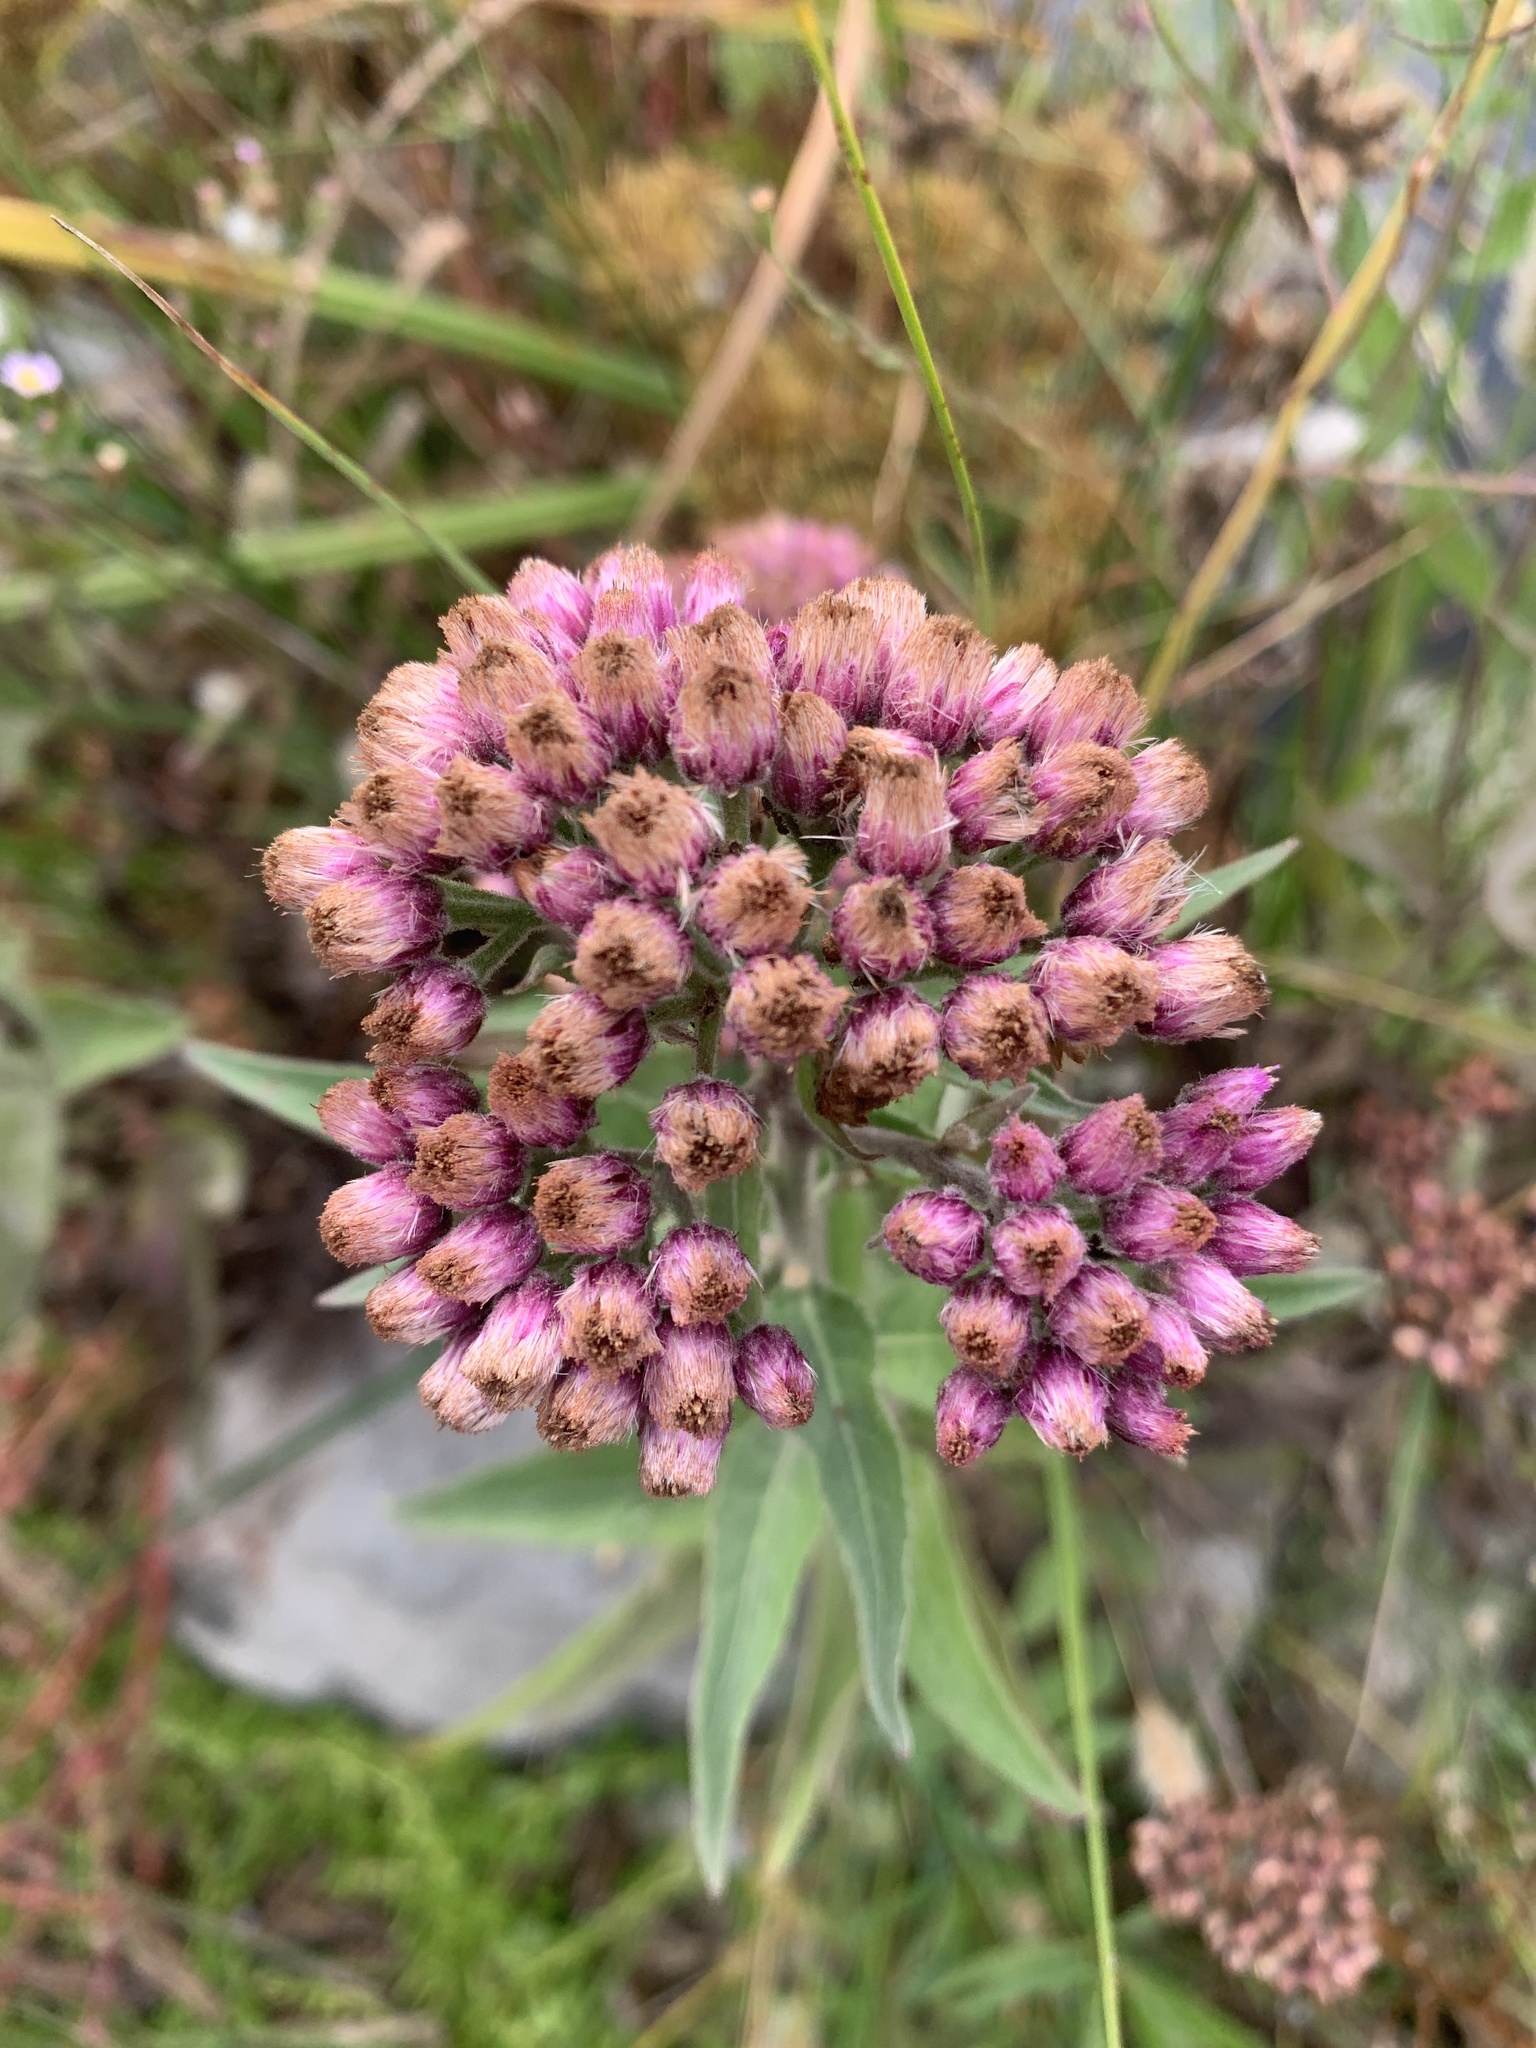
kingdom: Plantae
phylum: Tracheophyta
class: Magnoliopsida
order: Asterales
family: Asteraceae
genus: Pluchea
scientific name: Pluchea odorata
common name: Saltmarsh fleabane
